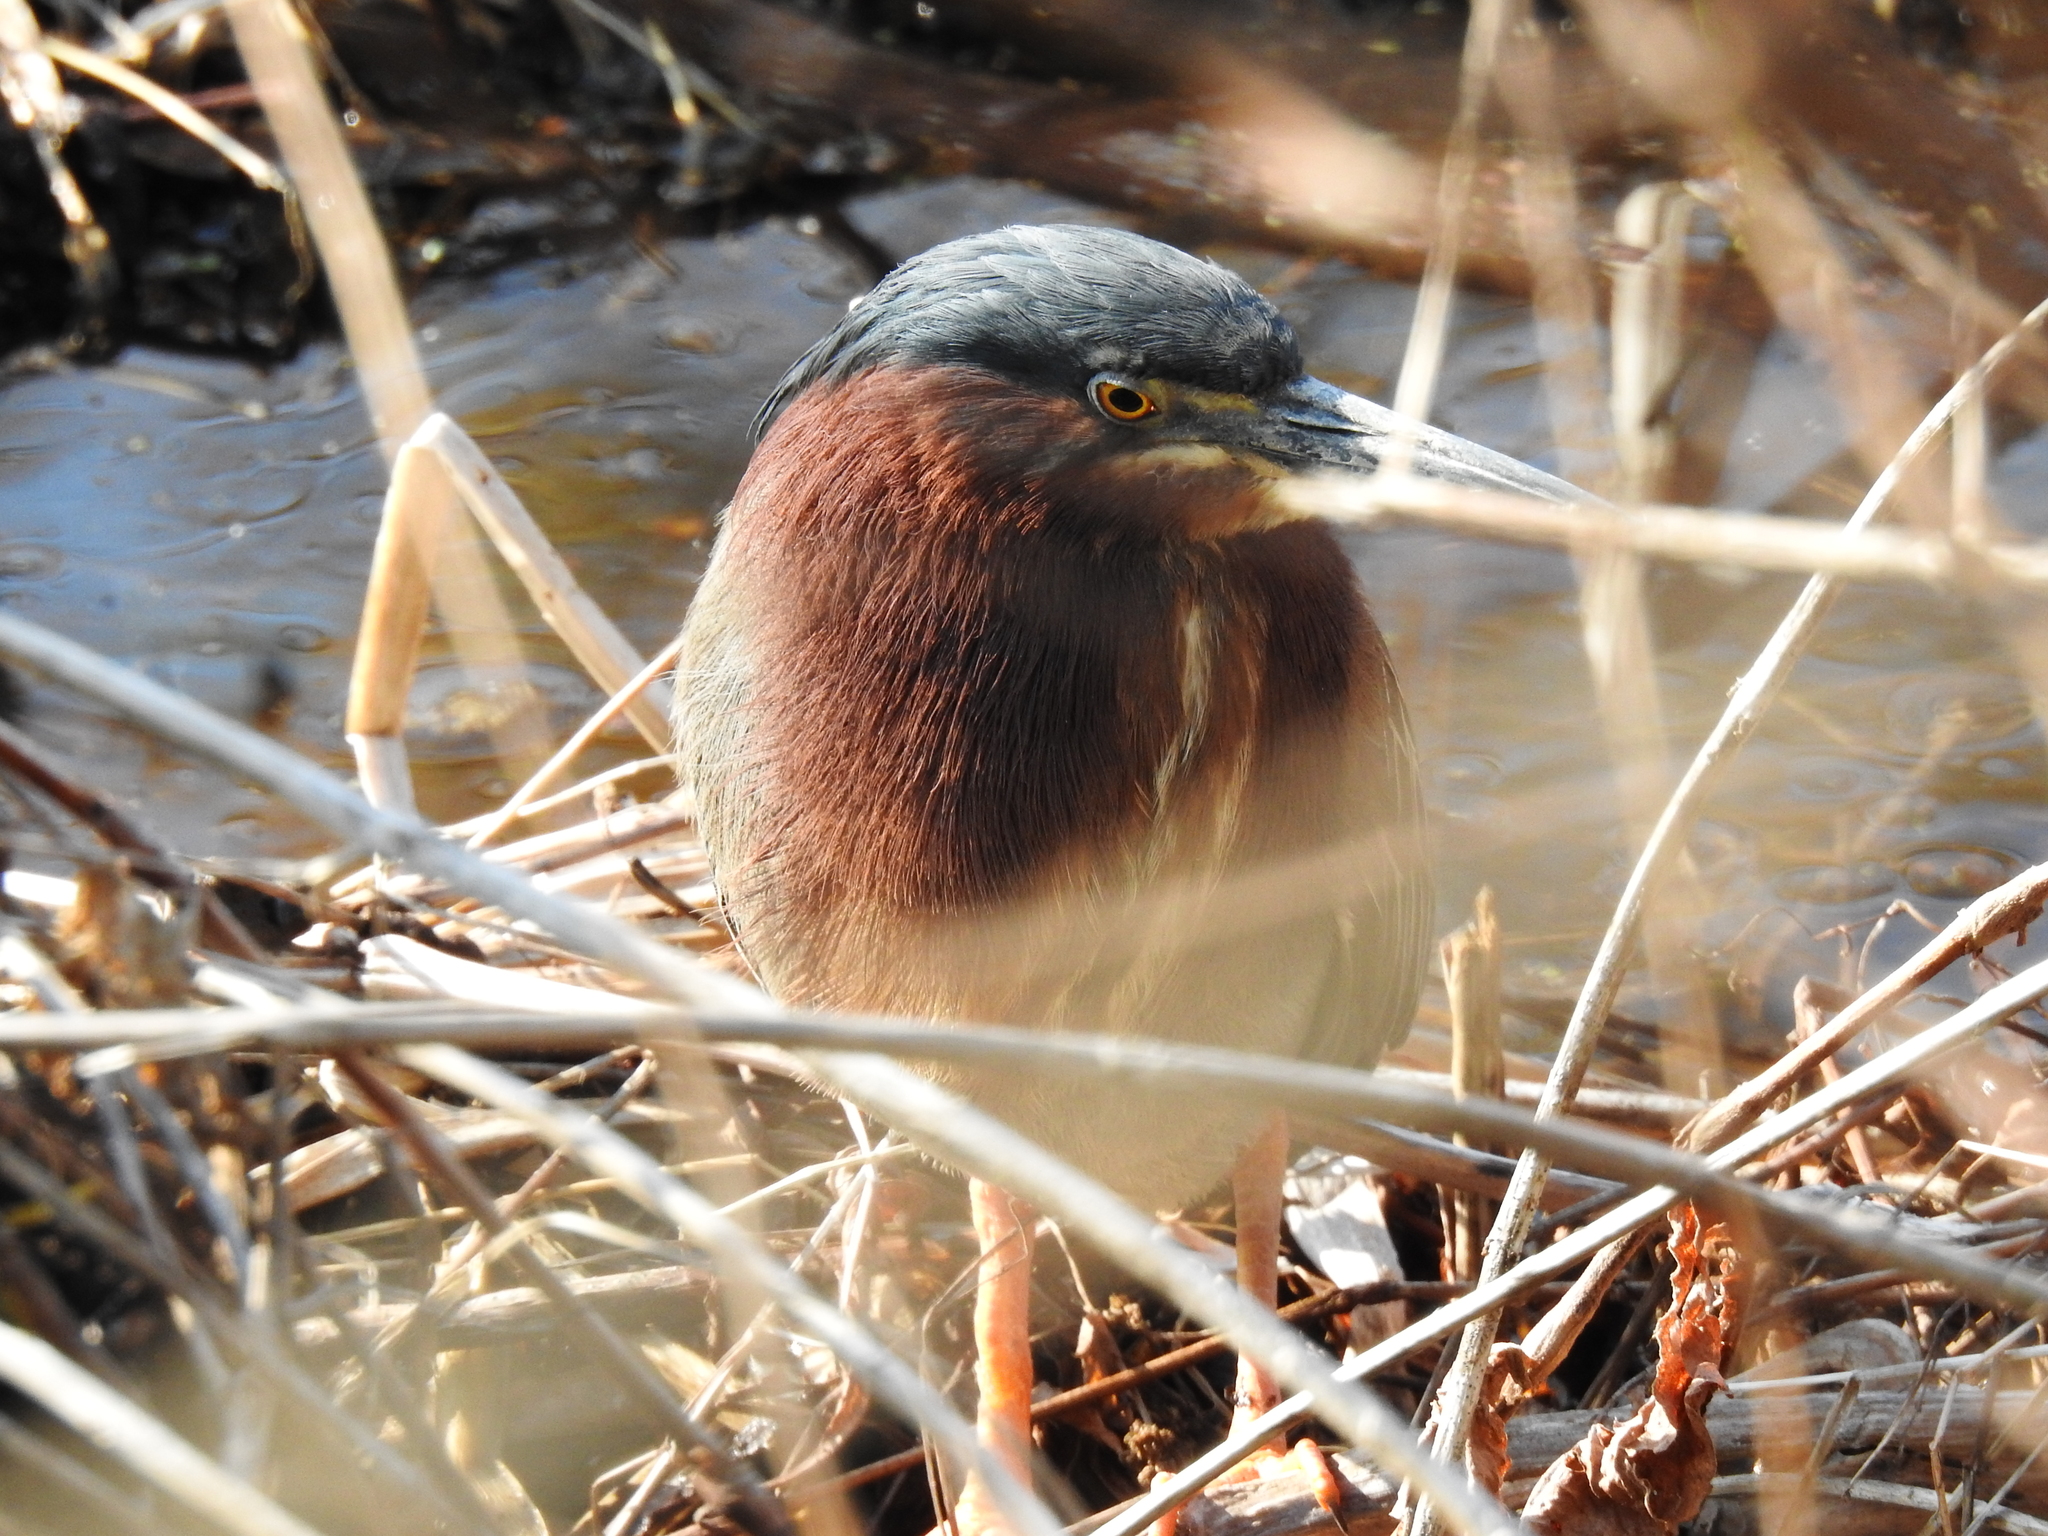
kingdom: Animalia
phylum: Chordata
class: Aves
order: Pelecaniformes
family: Ardeidae
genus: Butorides
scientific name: Butorides virescens
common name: Green heron
